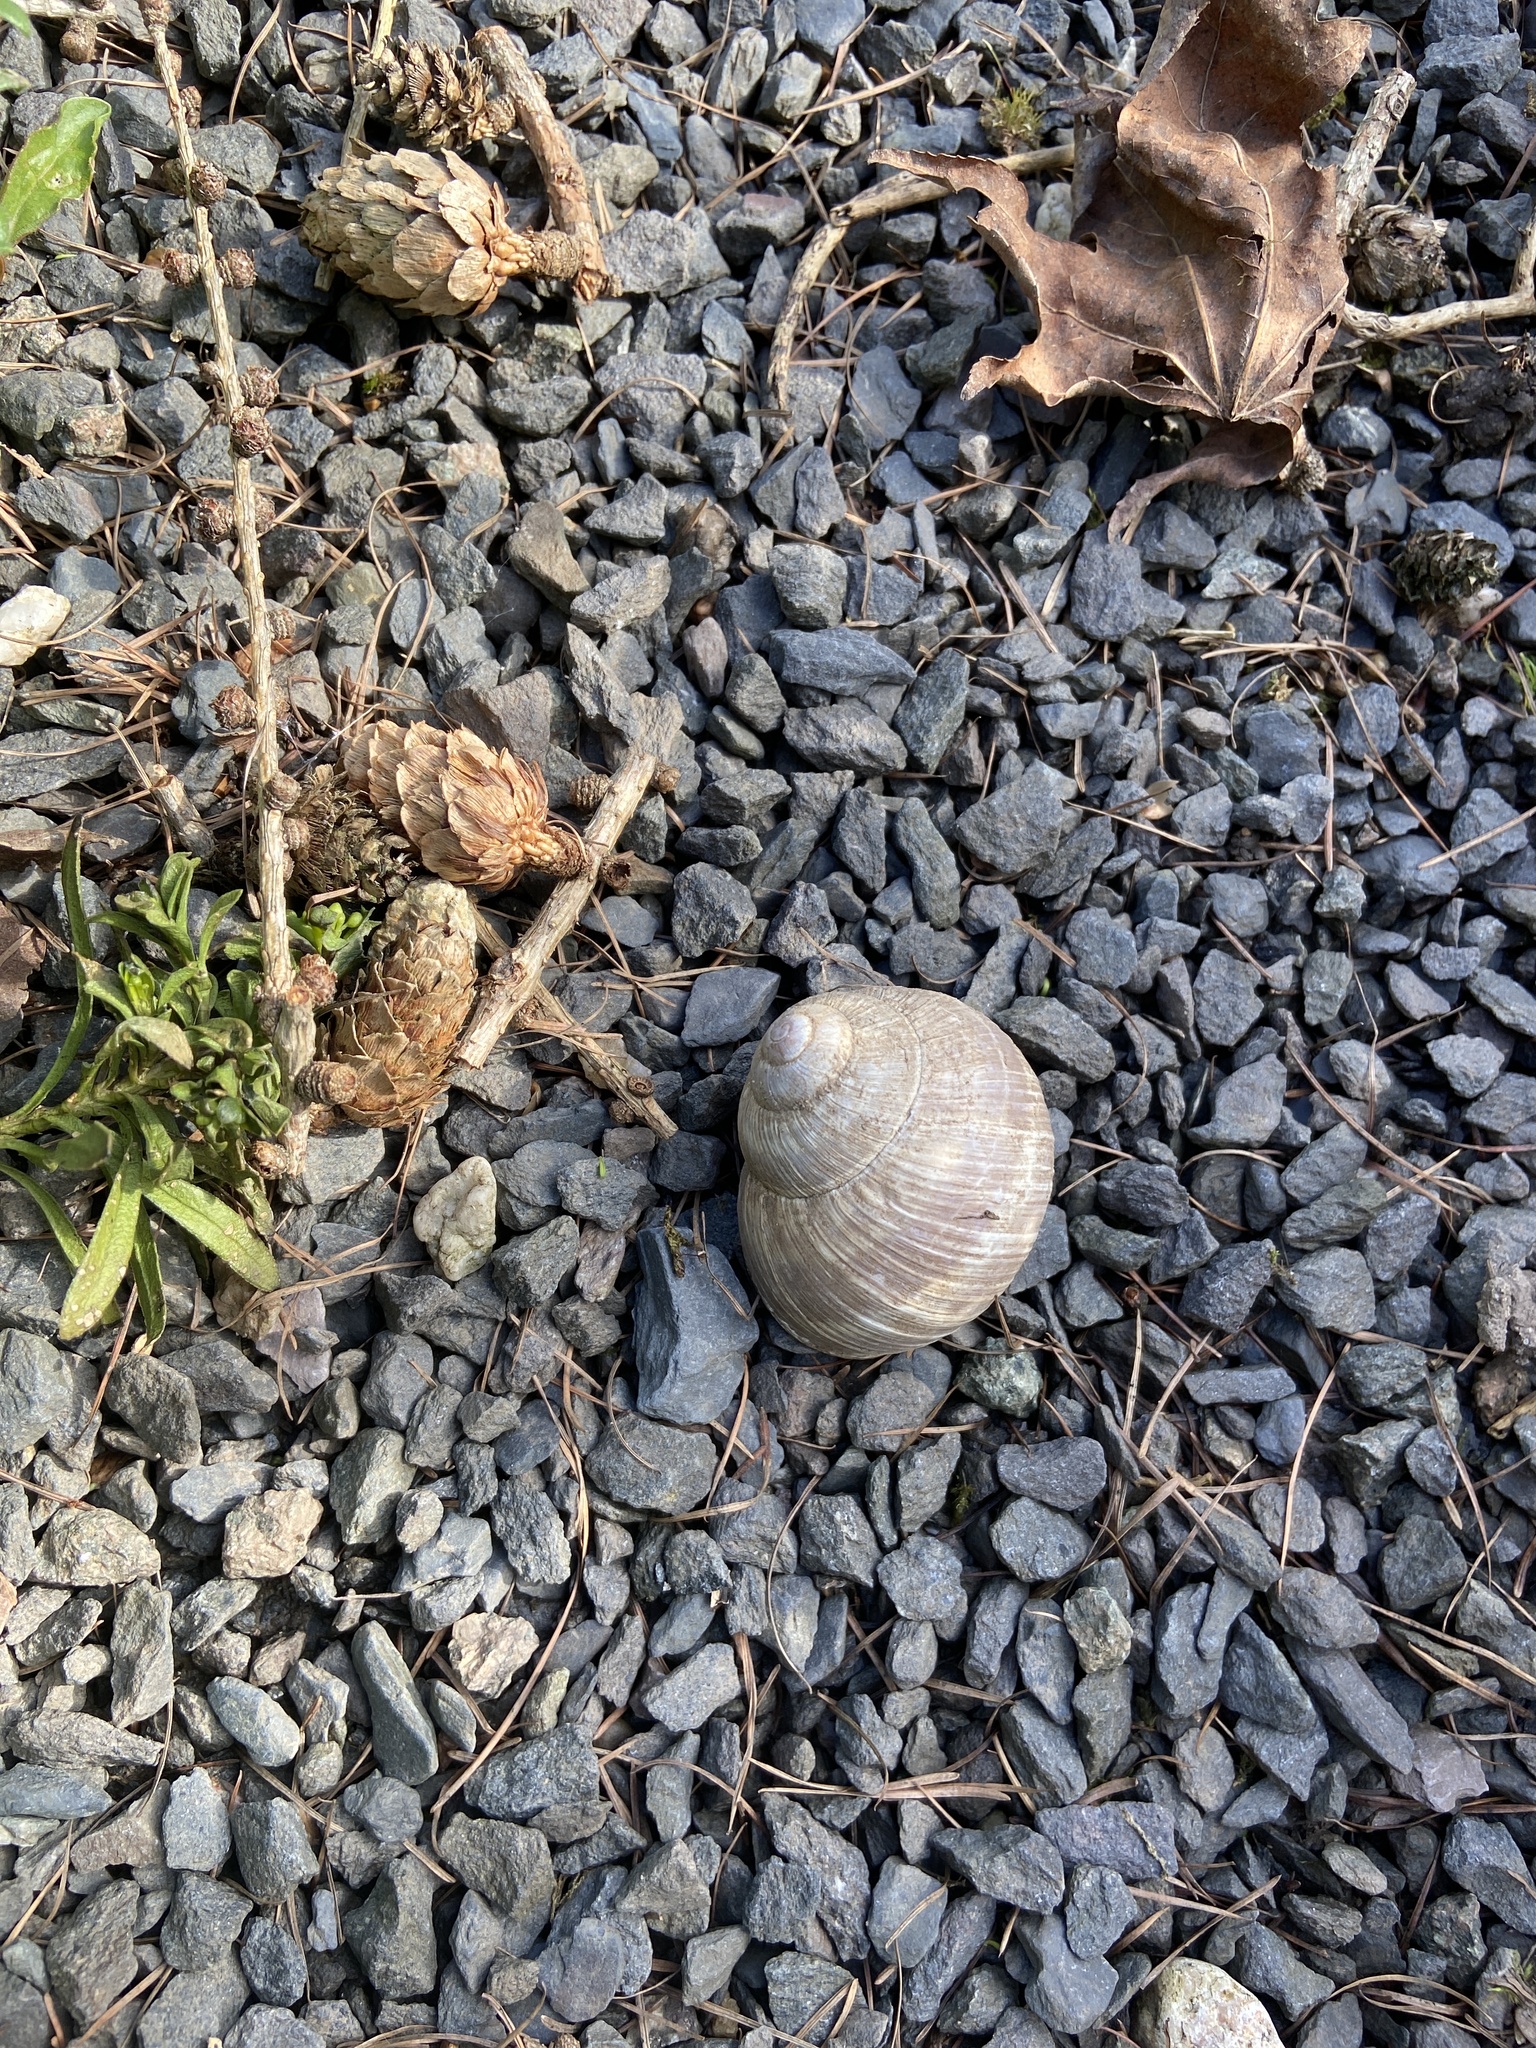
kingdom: Animalia
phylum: Mollusca
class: Gastropoda
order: Stylommatophora
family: Helicidae
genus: Helix
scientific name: Helix pomatia
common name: Roman snail
